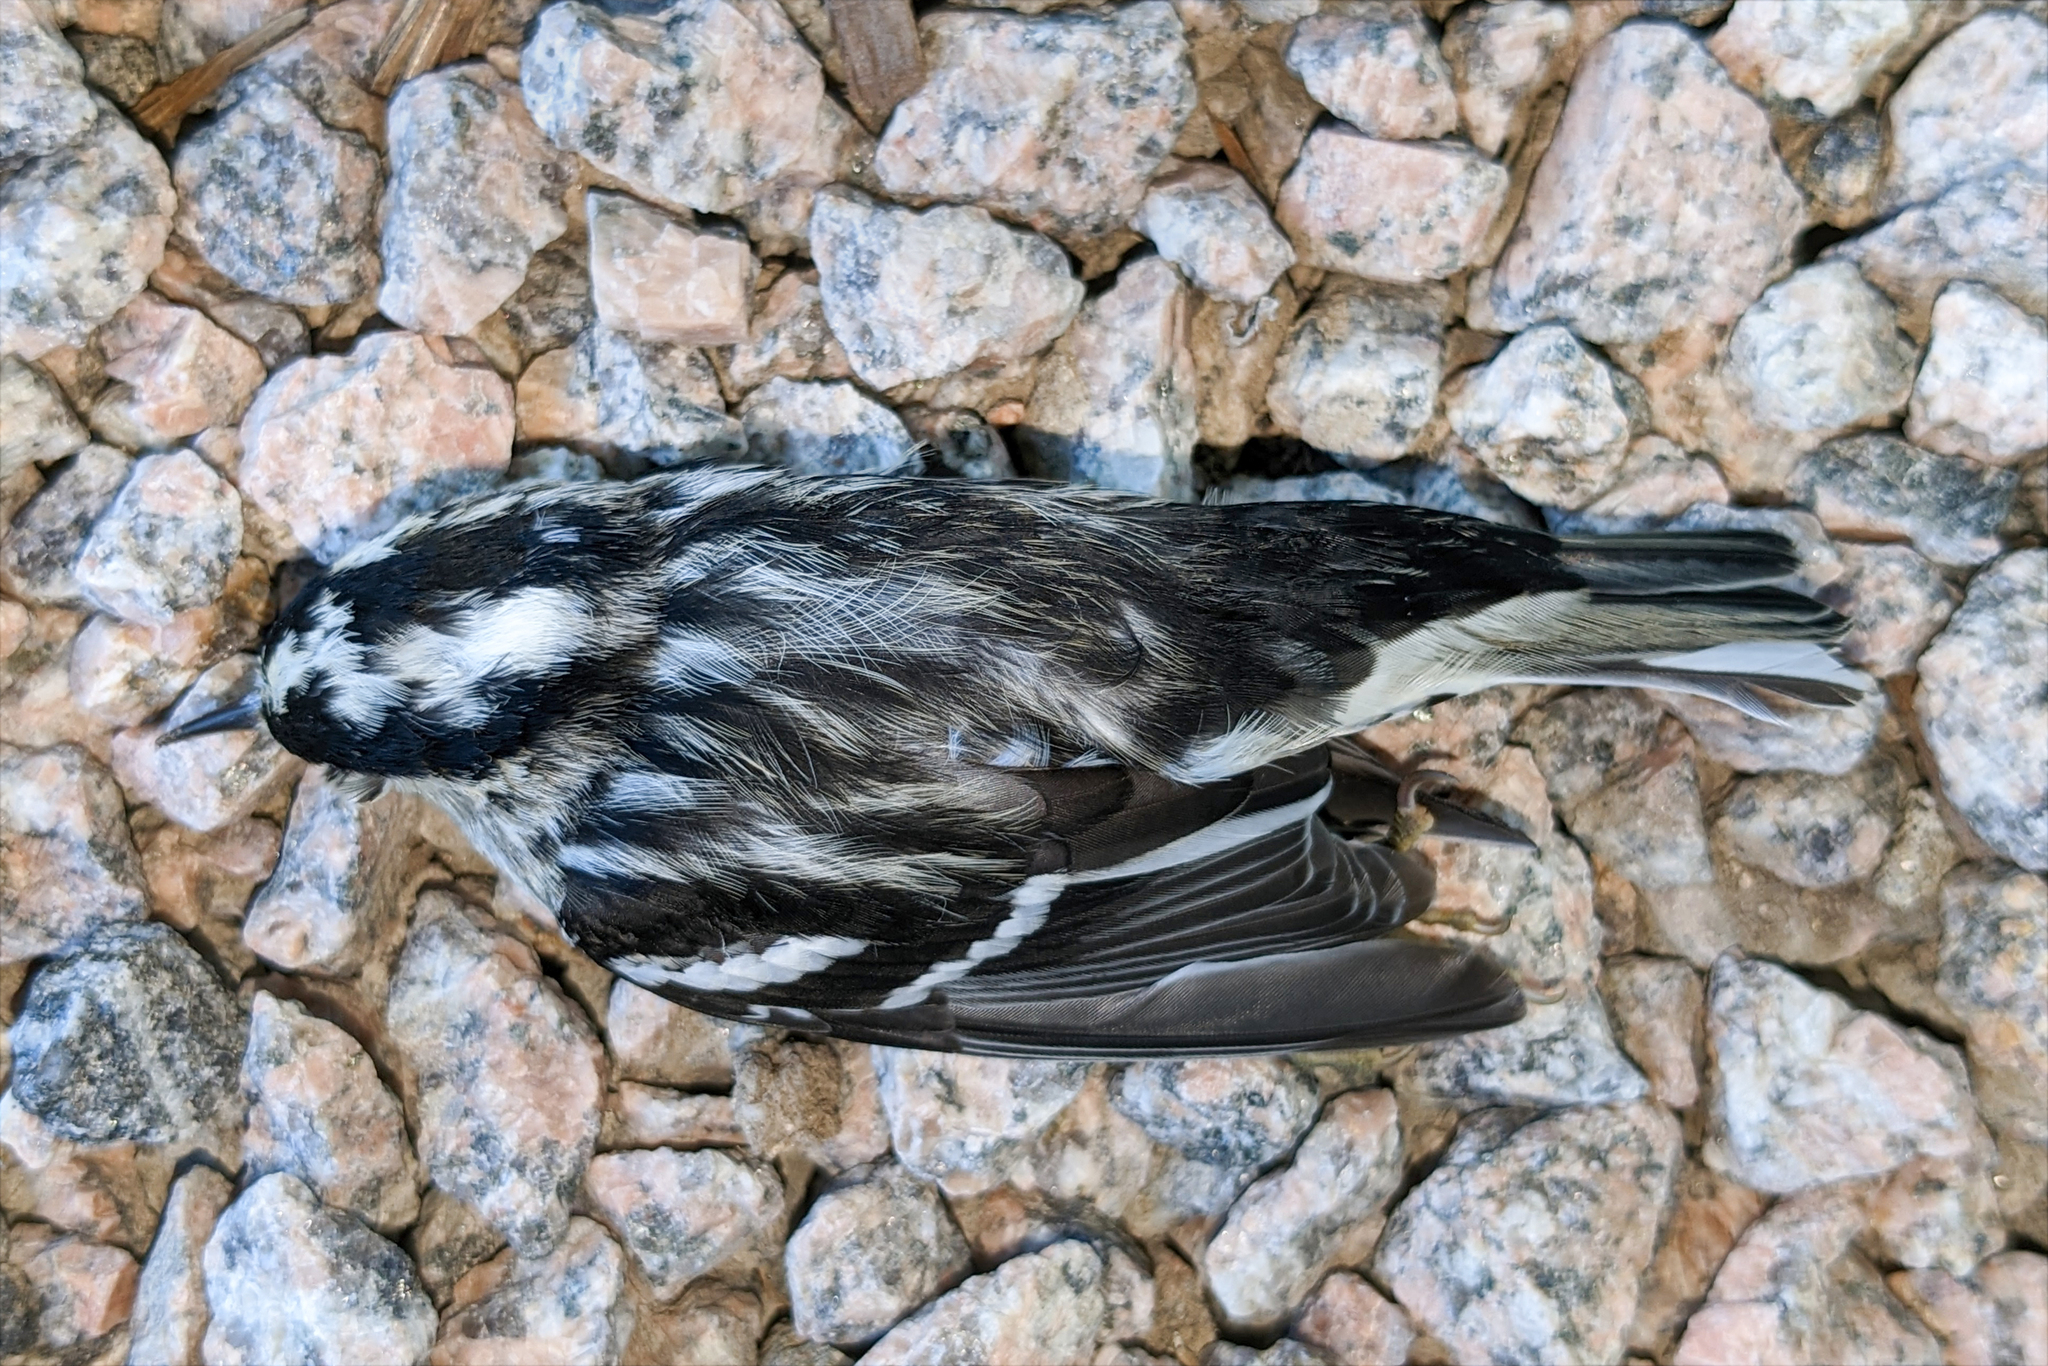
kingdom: Animalia
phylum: Chordata
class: Aves
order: Passeriformes
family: Parulidae
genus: Mniotilta
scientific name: Mniotilta varia
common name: Black-and-white warbler
